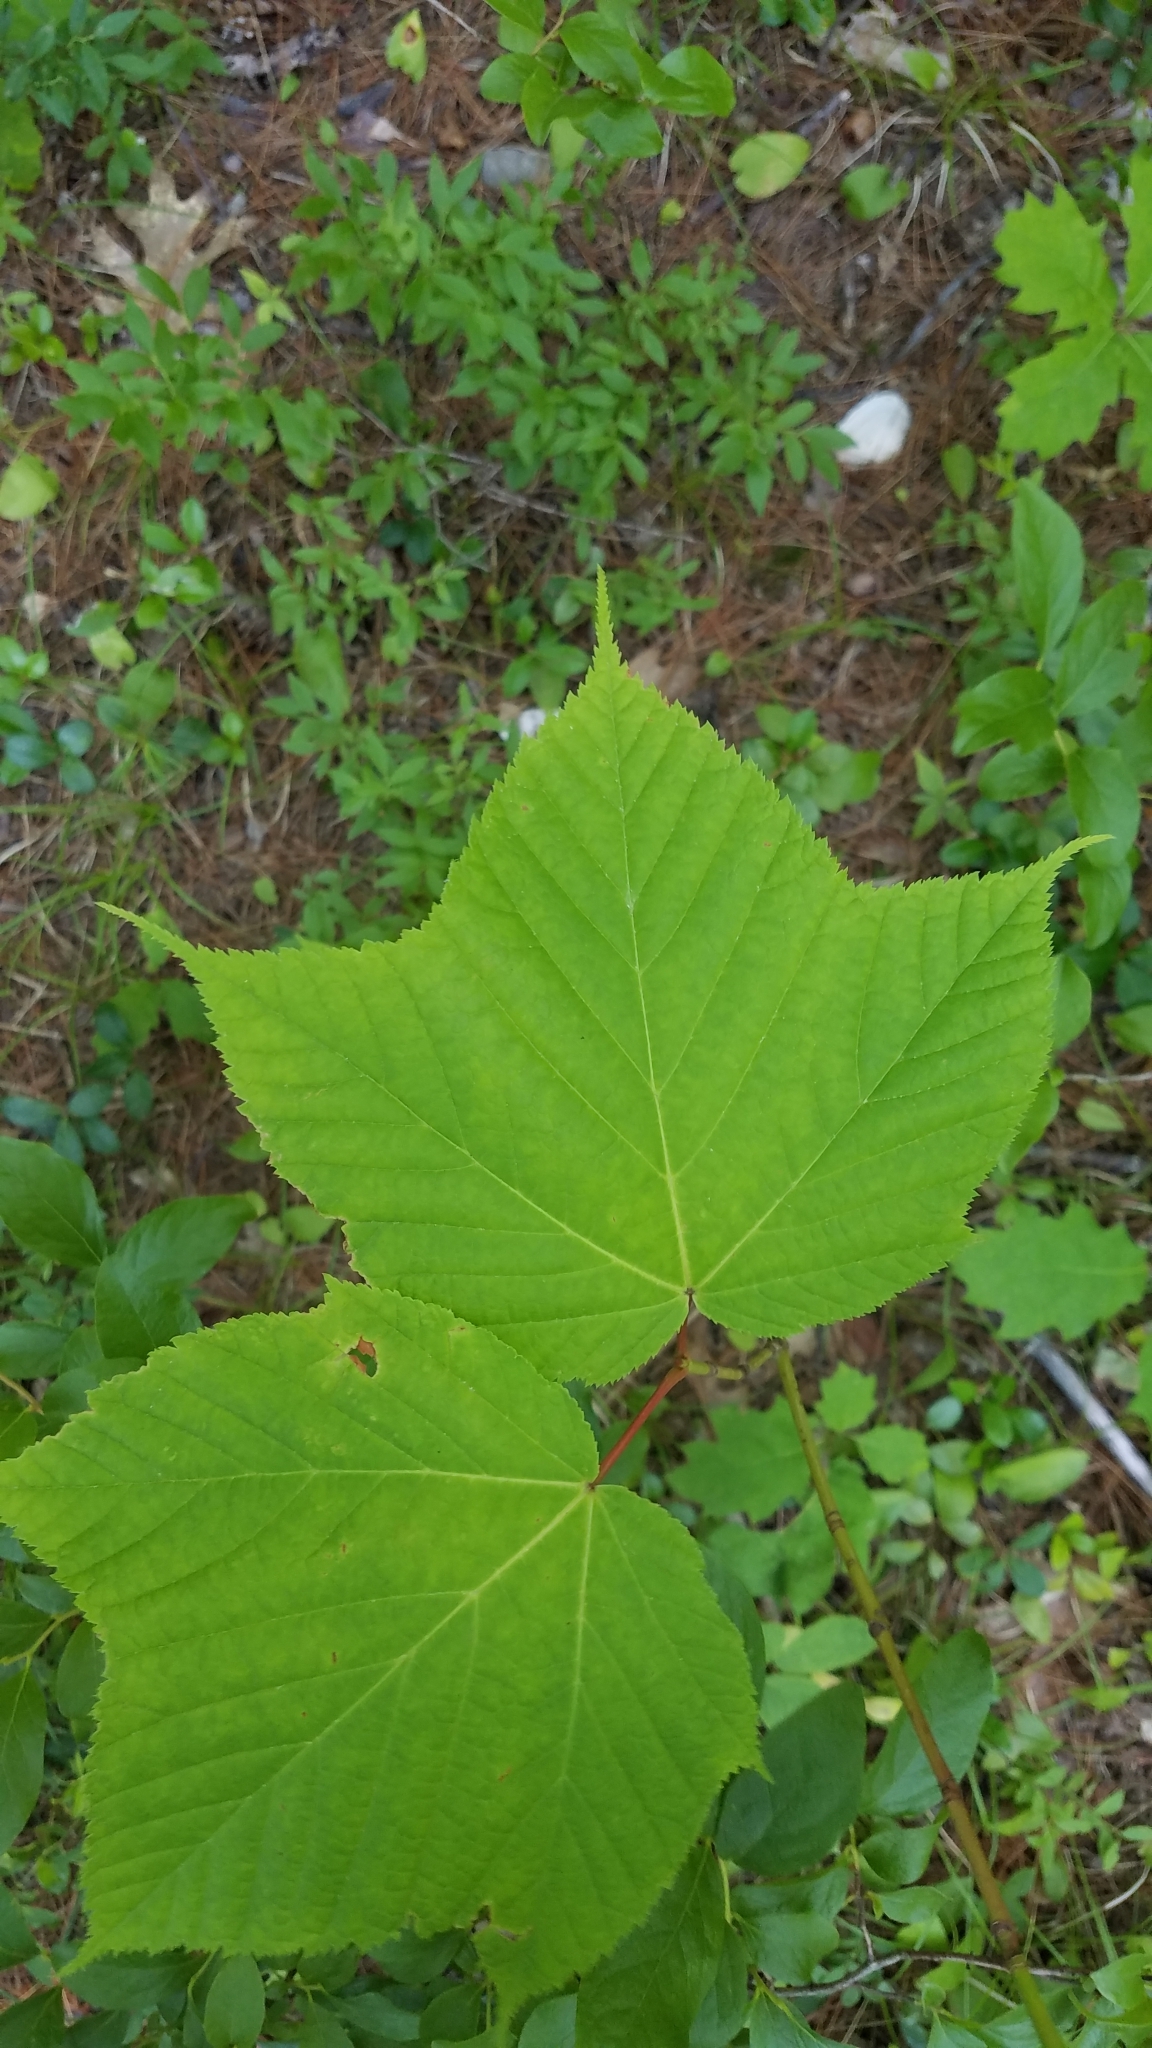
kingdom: Plantae
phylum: Tracheophyta
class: Magnoliopsida
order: Sapindales
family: Sapindaceae
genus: Acer
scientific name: Acer pensylvanicum
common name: Moosewood
